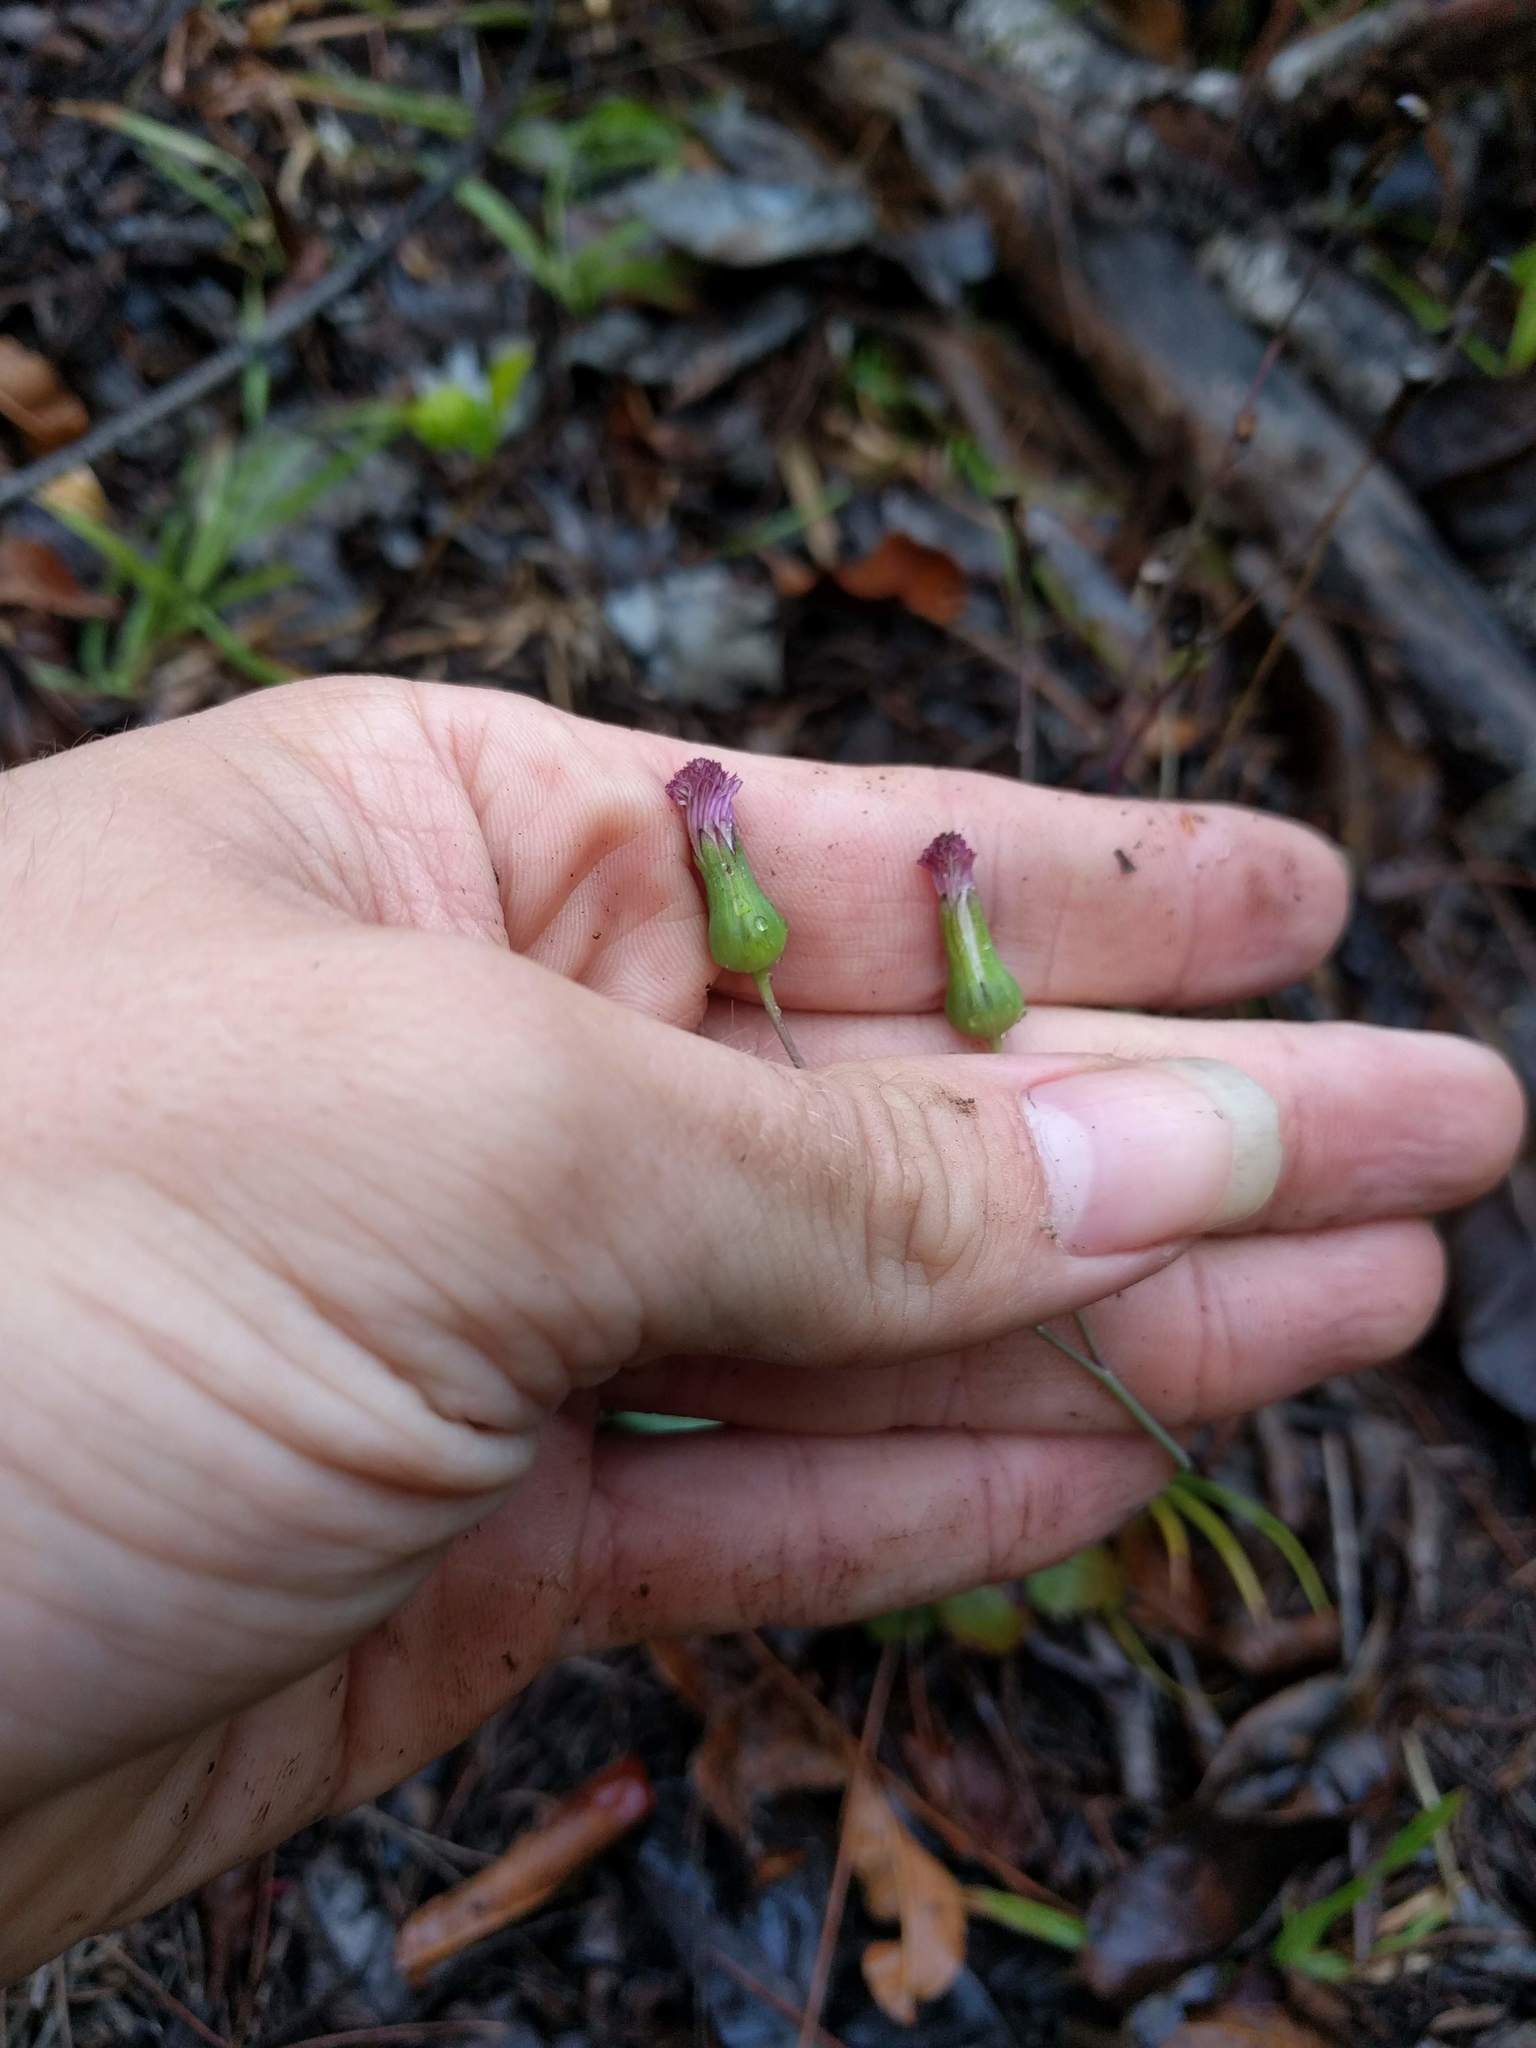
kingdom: Plantae
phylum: Tracheophyta
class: Magnoliopsida
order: Asterales
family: Asteraceae
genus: Emilia
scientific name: Emilia sonchifolia
